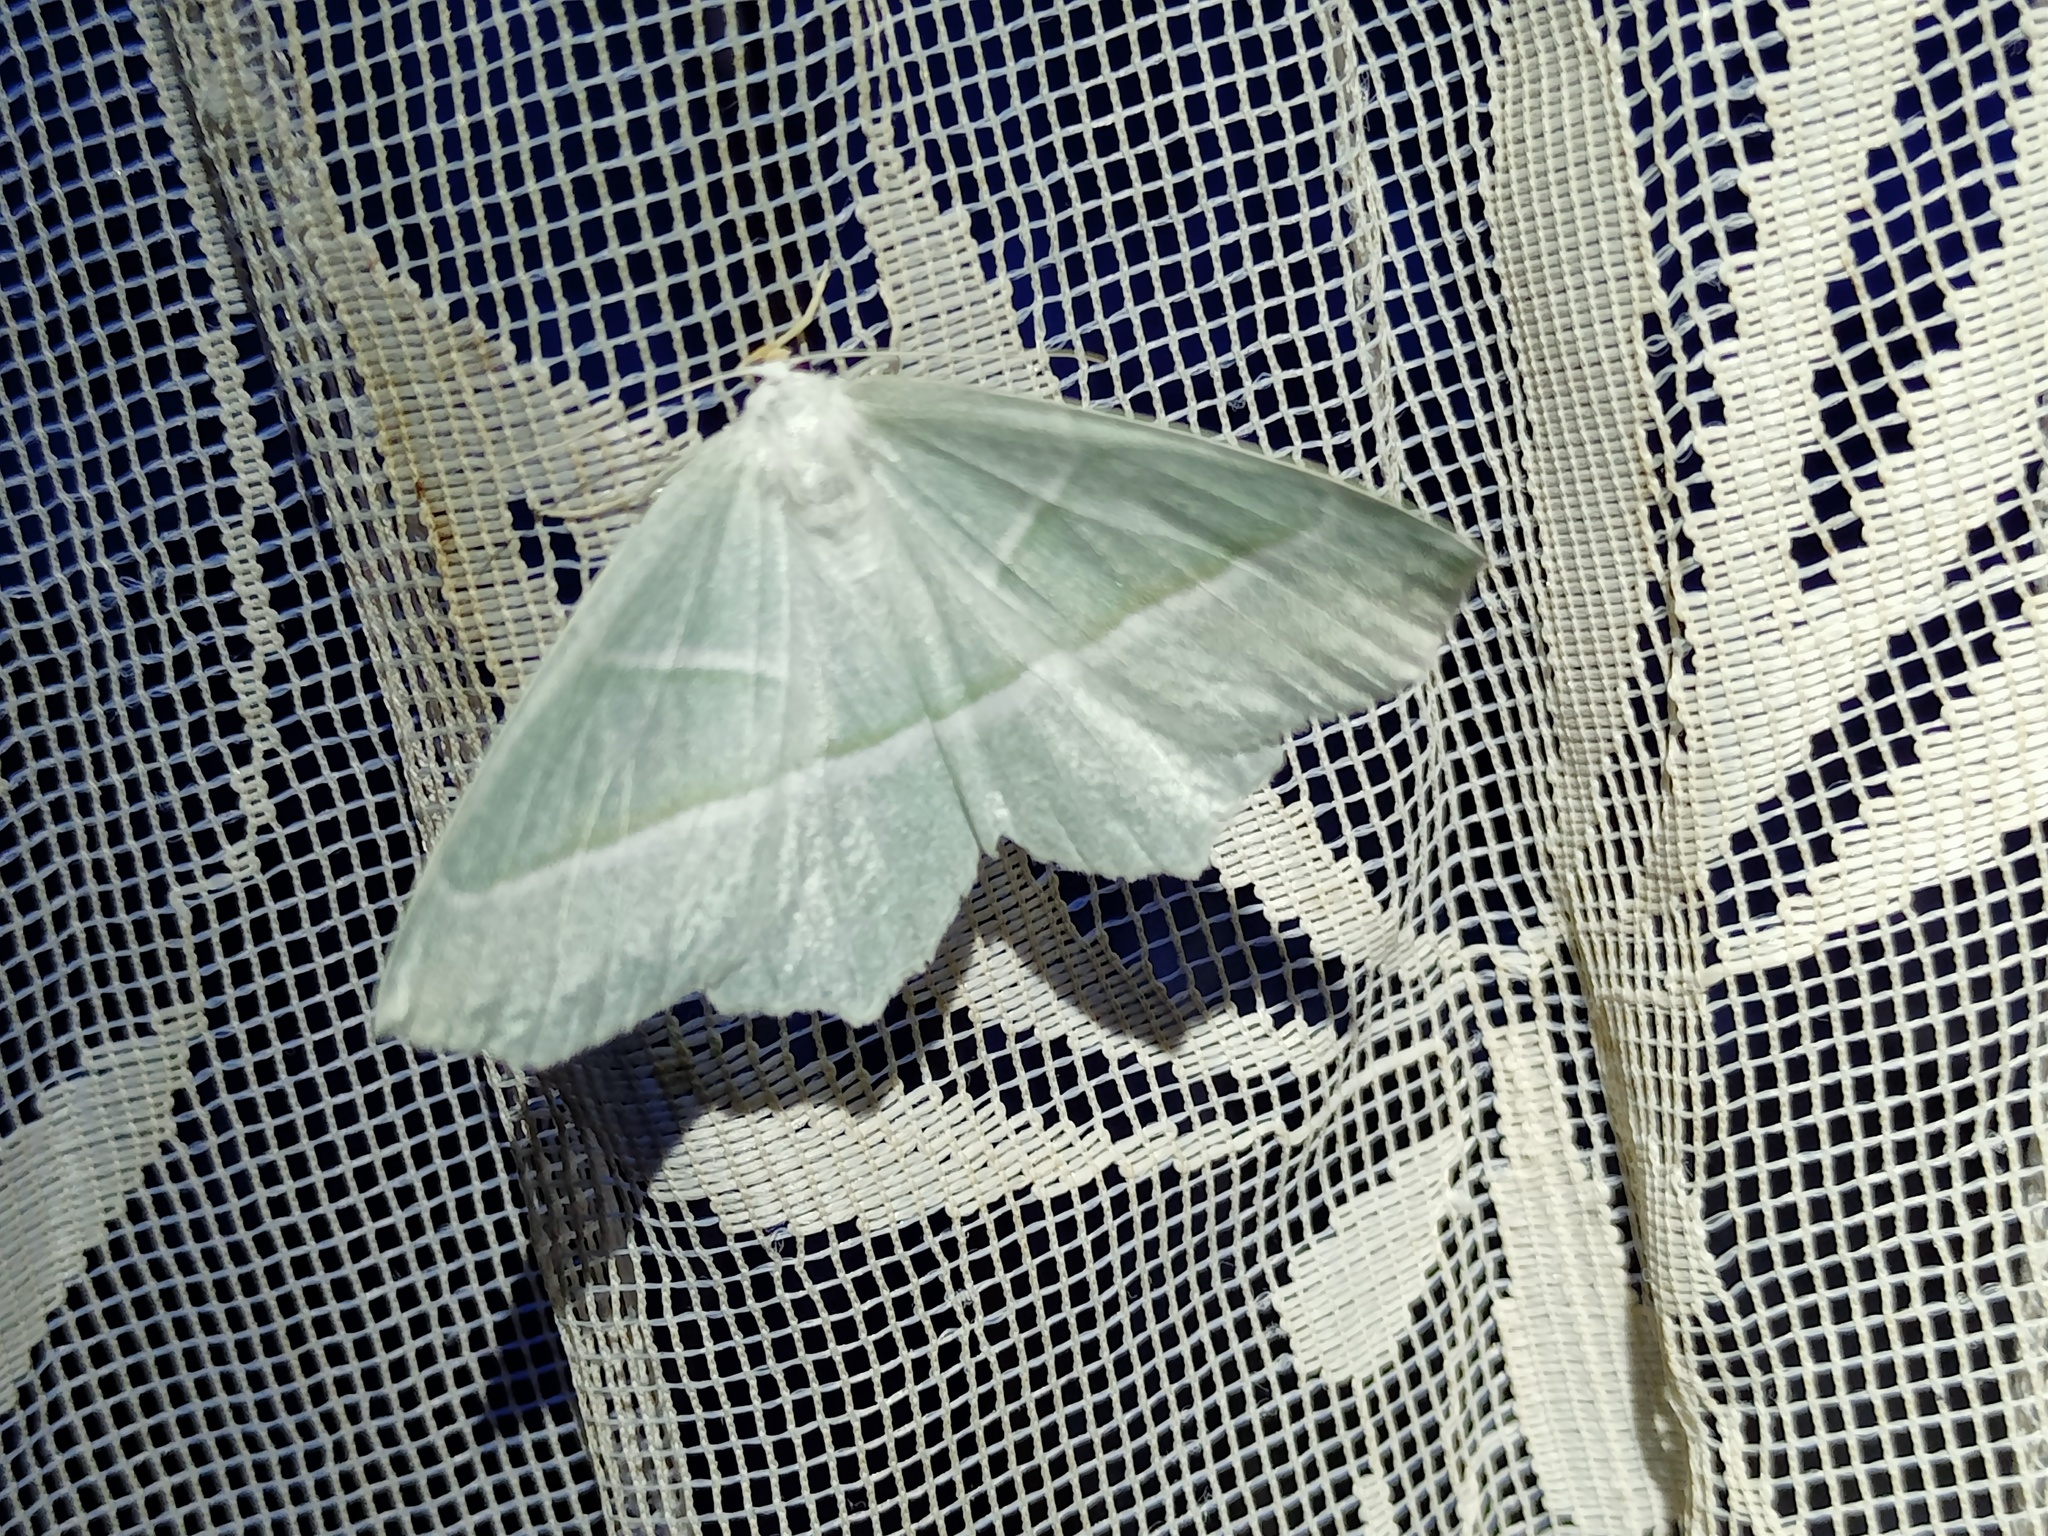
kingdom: Animalia
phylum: Arthropoda
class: Insecta
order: Lepidoptera
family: Geometridae
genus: Campaea
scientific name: Campaea margaritaria
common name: Light emerald
